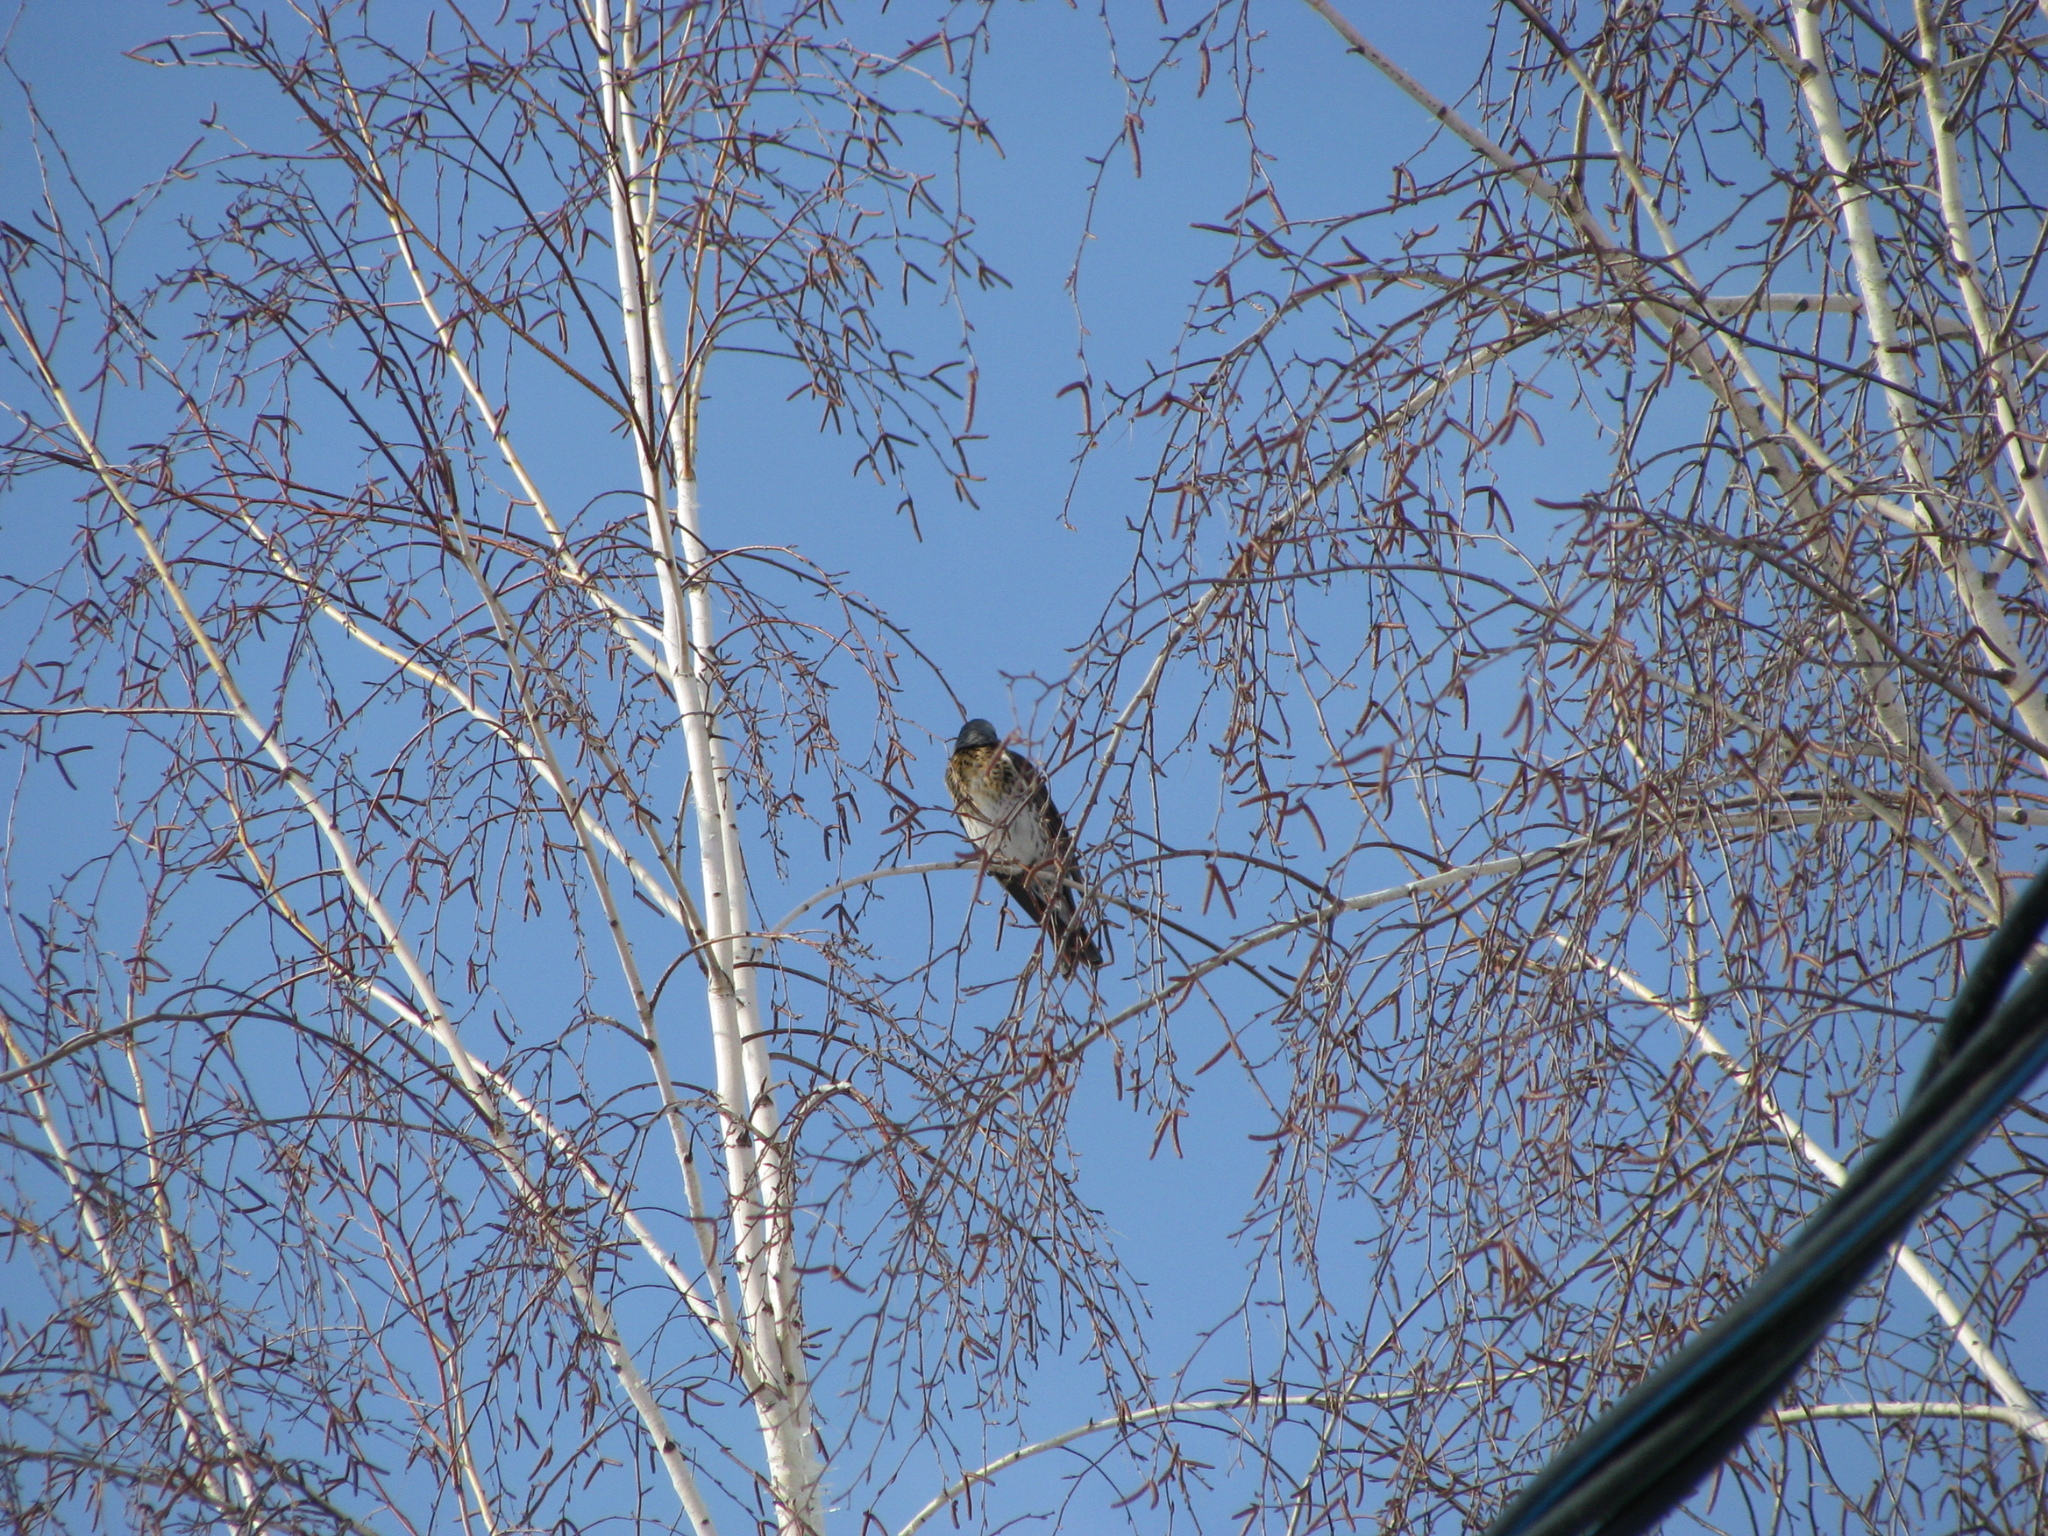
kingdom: Animalia
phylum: Chordata
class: Aves
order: Passeriformes
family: Turdidae
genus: Turdus
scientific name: Turdus pilaris
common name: Fieldfare
